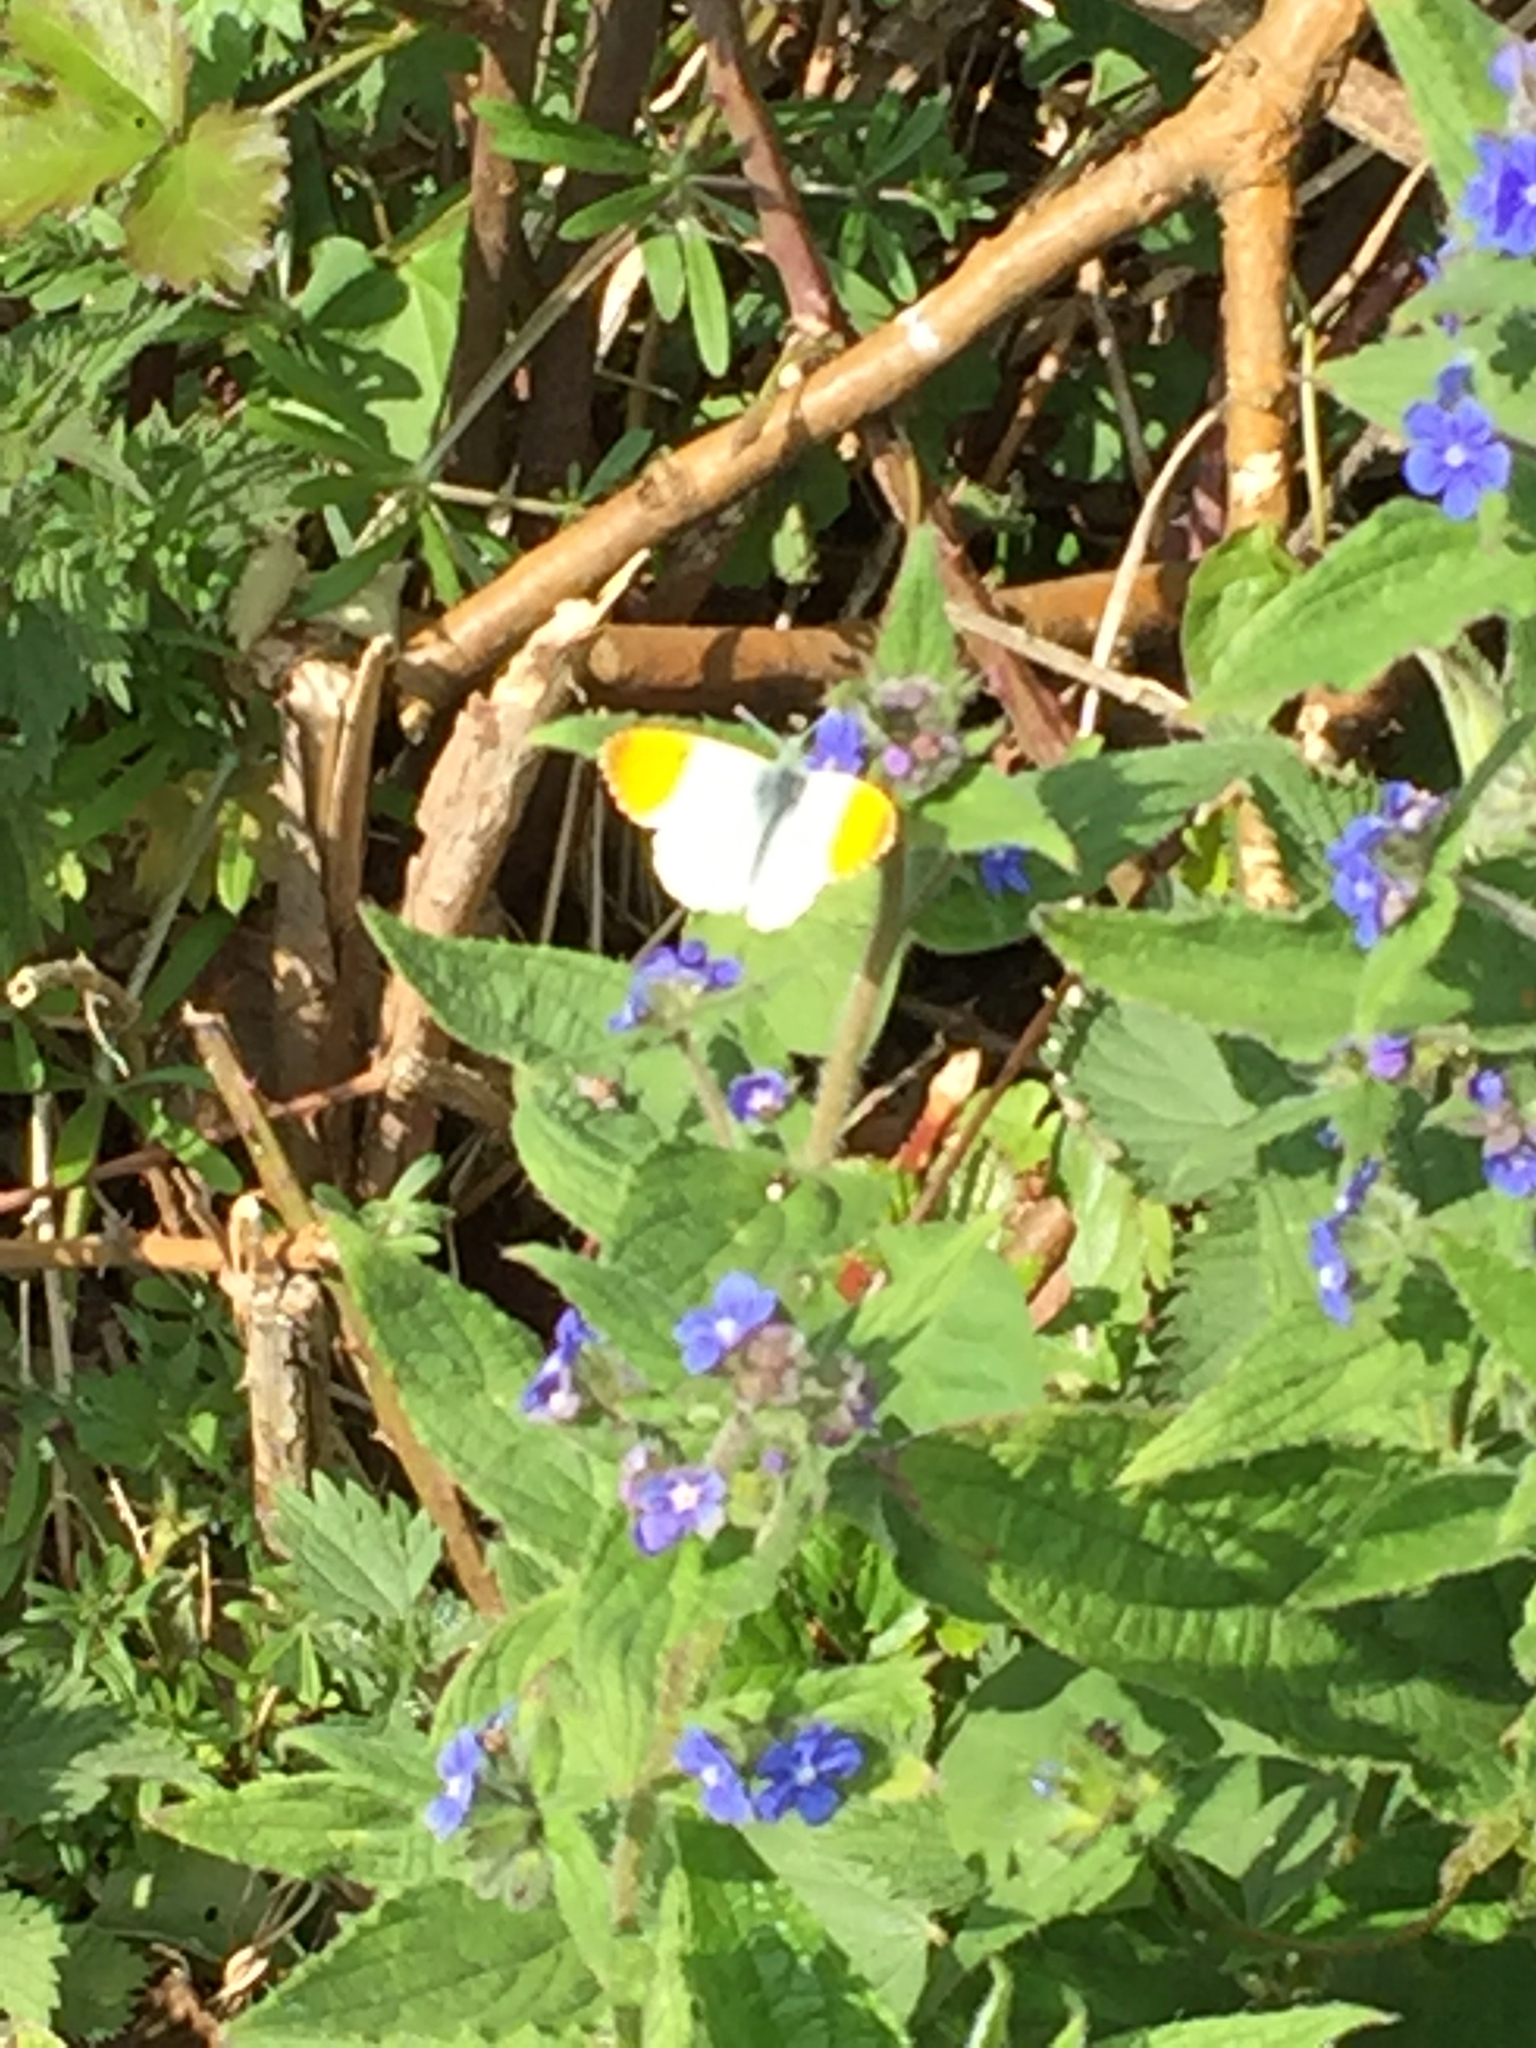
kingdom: Animalia
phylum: Arthropoda
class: Insecta
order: Lepidoptera
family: Pieridae
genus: Anthocharis
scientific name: Anthocharis cardamines
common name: Orange-tip
